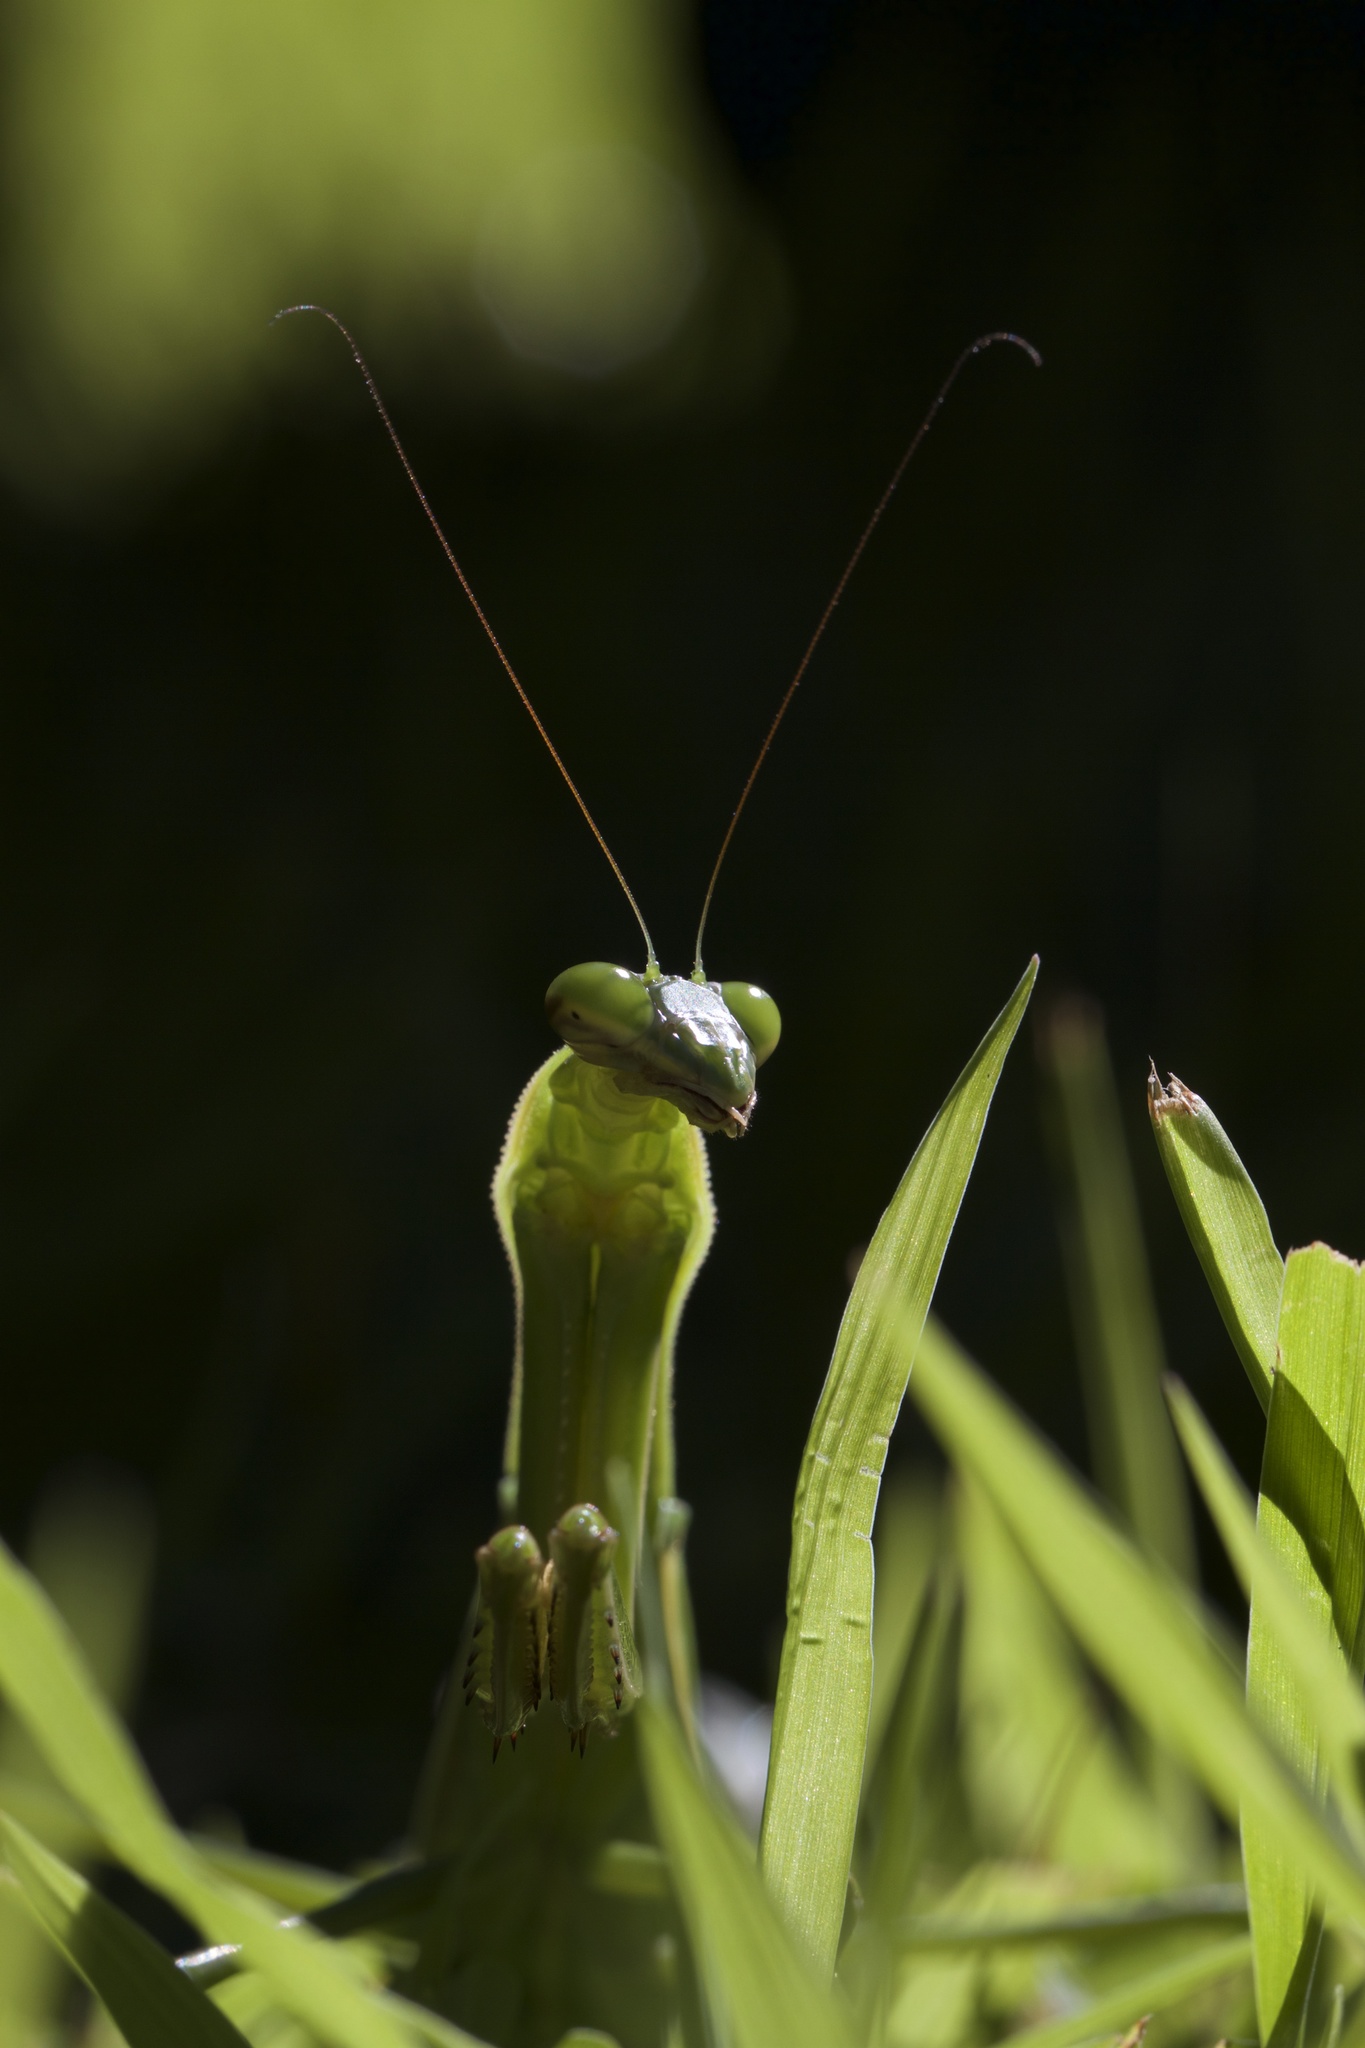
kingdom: Animalia
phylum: Arthropoda
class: Insecta
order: Mantodea
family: Mantidae
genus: Tenodera
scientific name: Tenodera sinensis
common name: Chinese mantis
